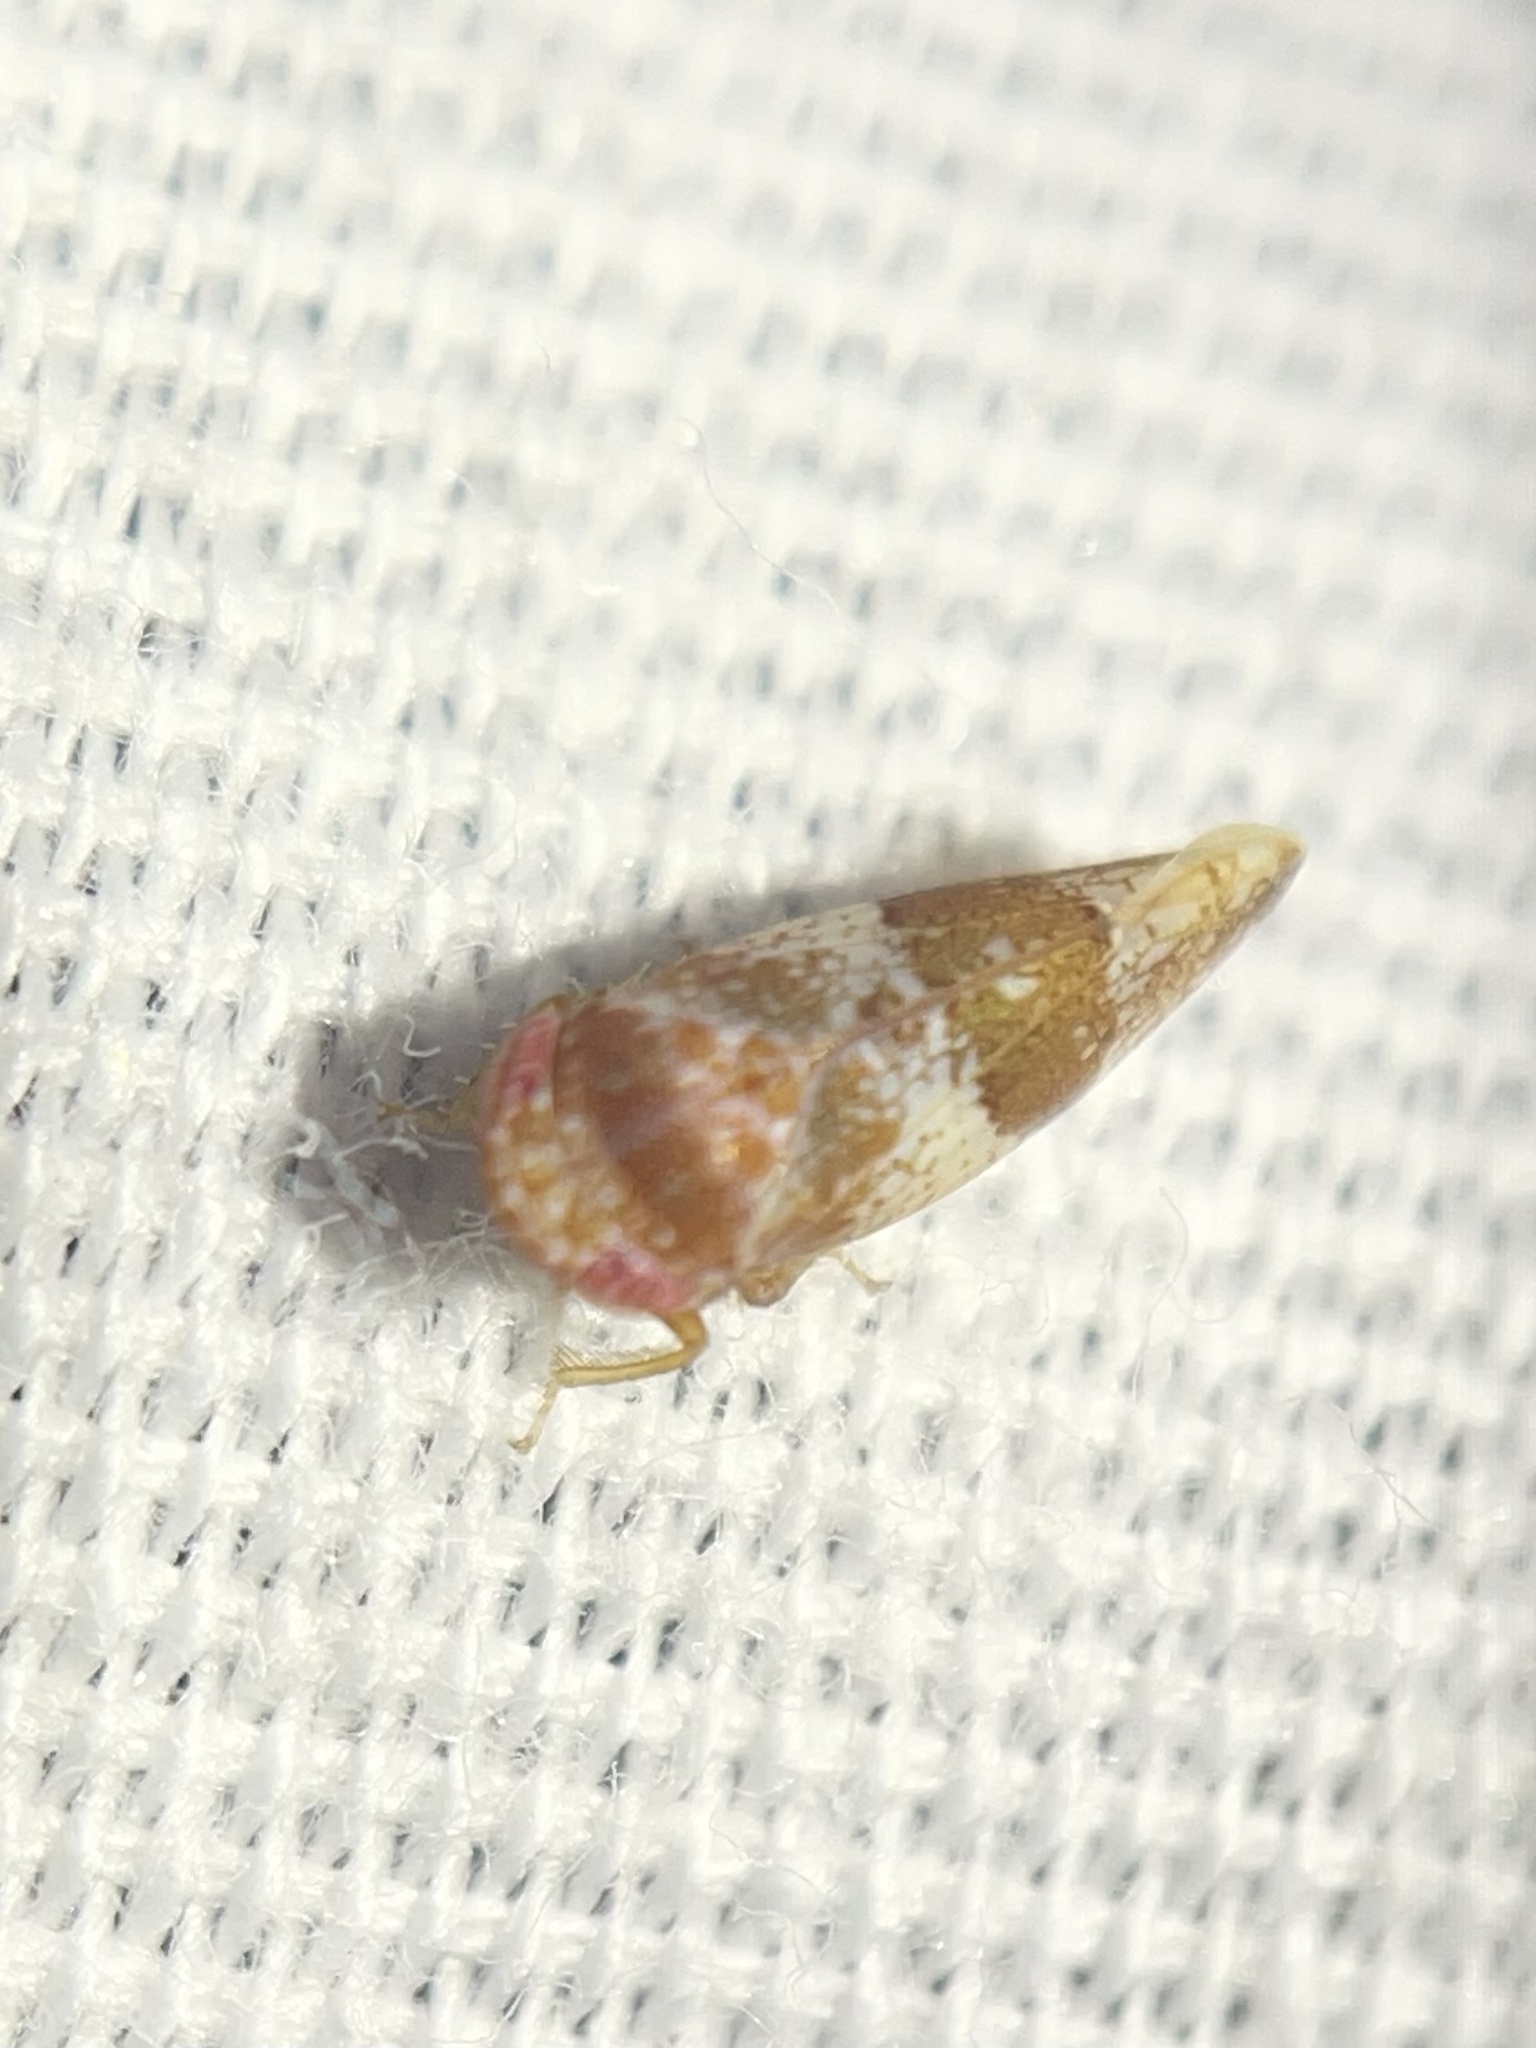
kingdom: Animalia
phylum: Arthropoda
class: Insecta
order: Hemiptera
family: Cicadellidae
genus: Norvellina
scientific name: Norvellina helenae
